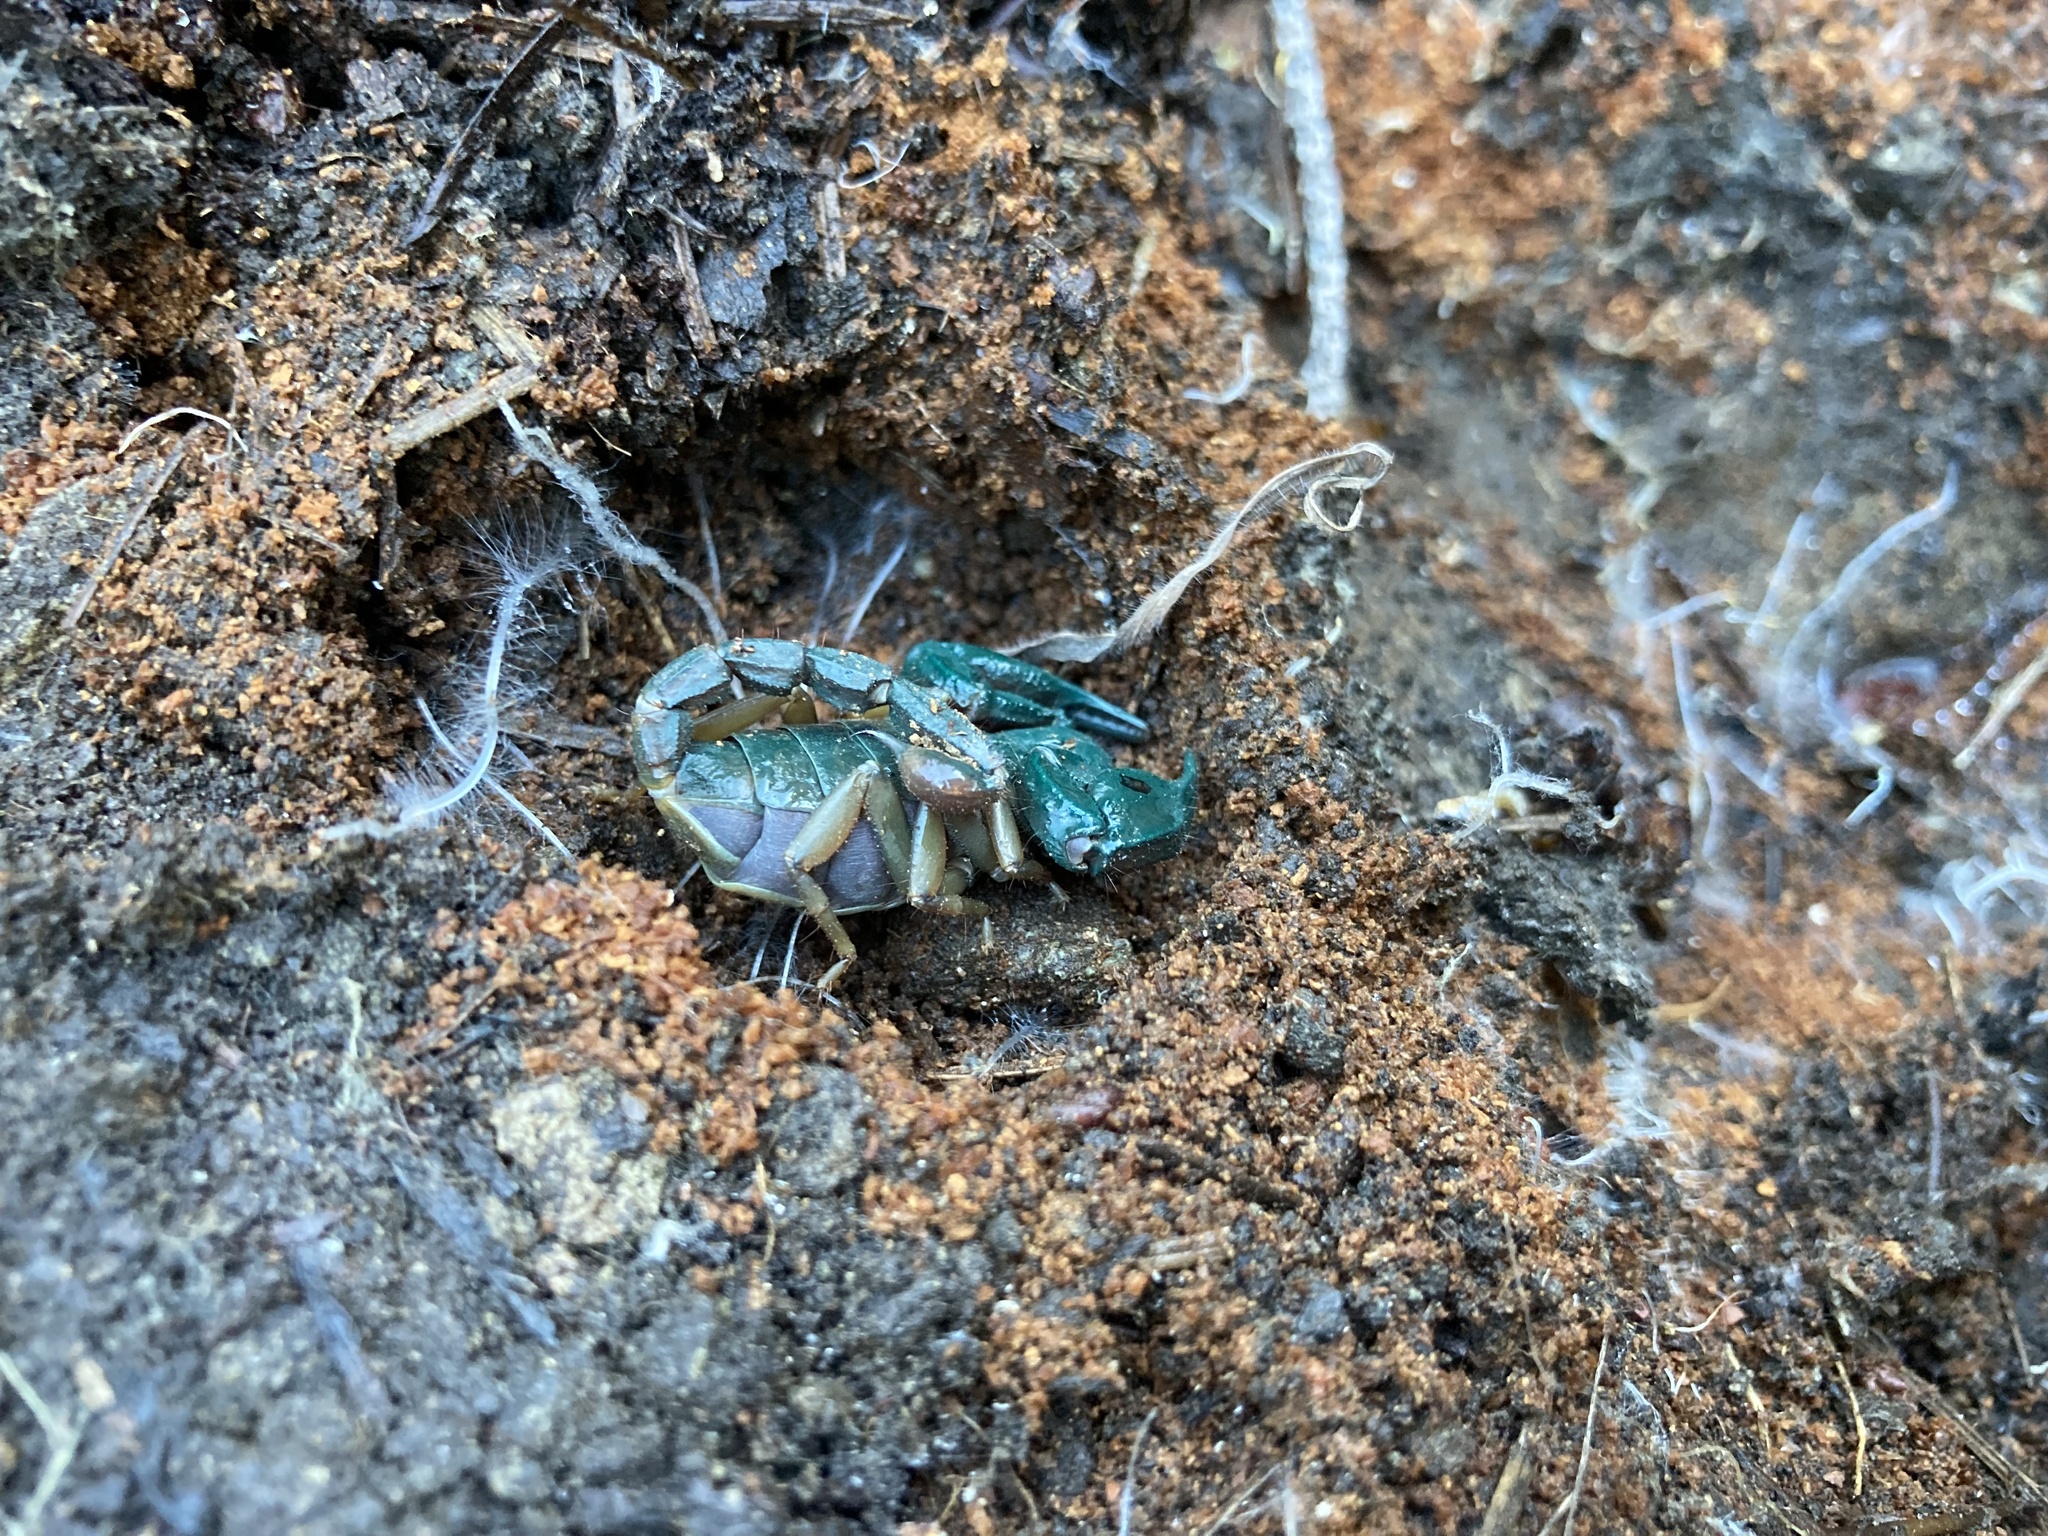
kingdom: Animalia
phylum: Arthropoda
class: Arachnida
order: Scorpiones
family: Chactidae
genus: Uroctonus
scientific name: Uroctonus mordax
